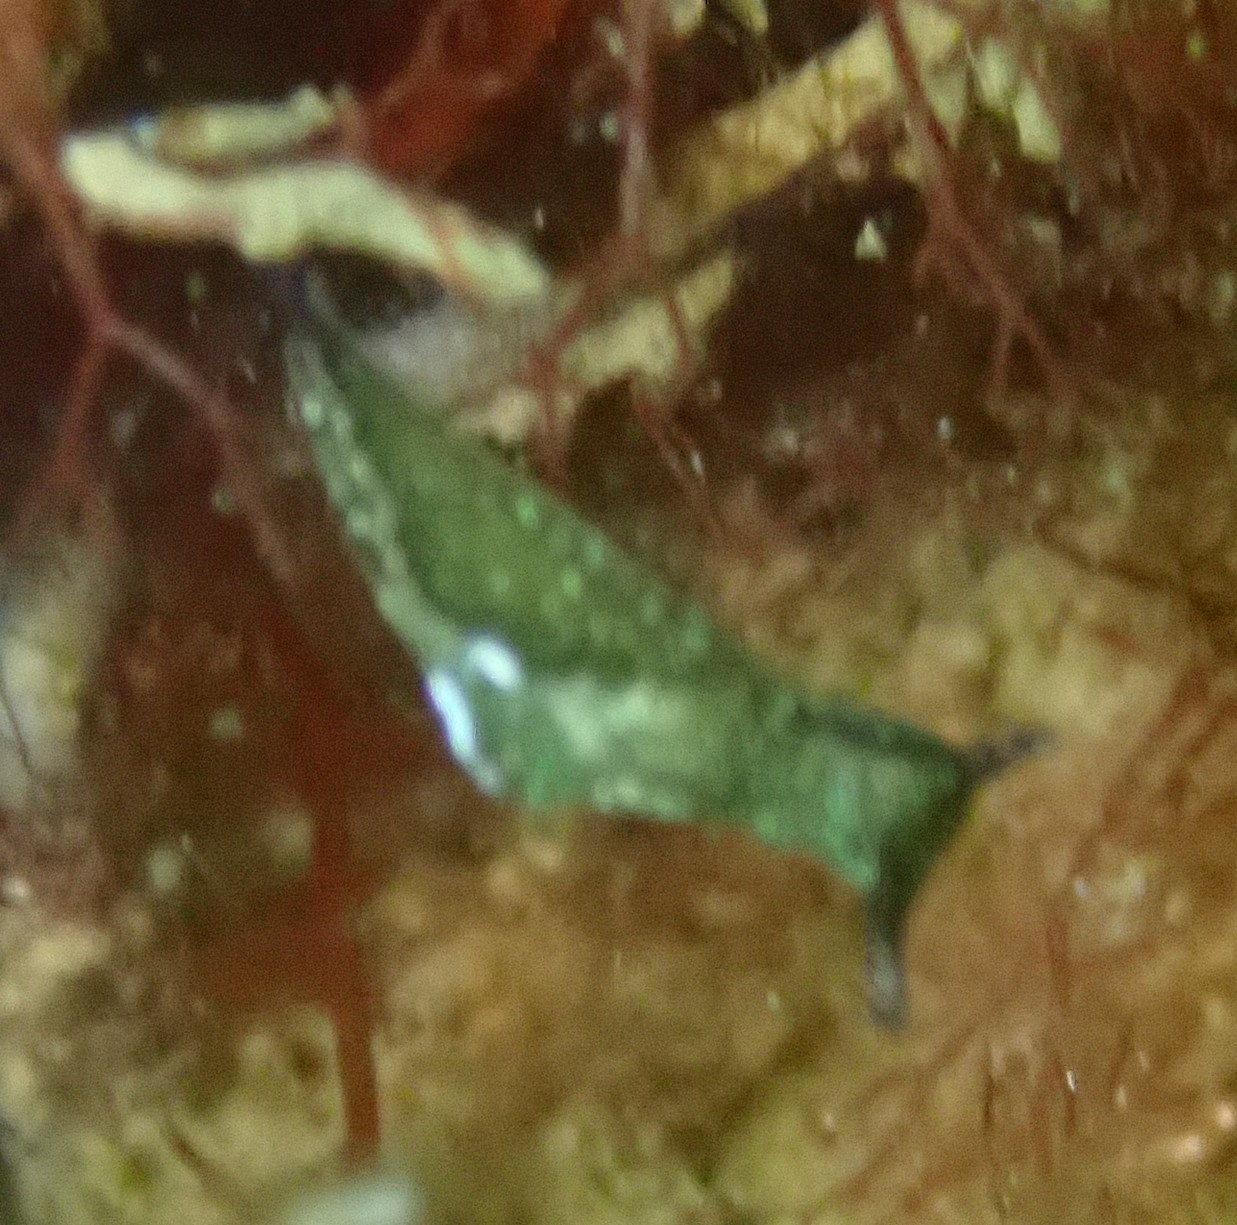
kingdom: Animalia
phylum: Mollusca
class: Gastropoda
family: Plakobranchidae
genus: Elysia
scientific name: Elysia viridis
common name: Green elysia
